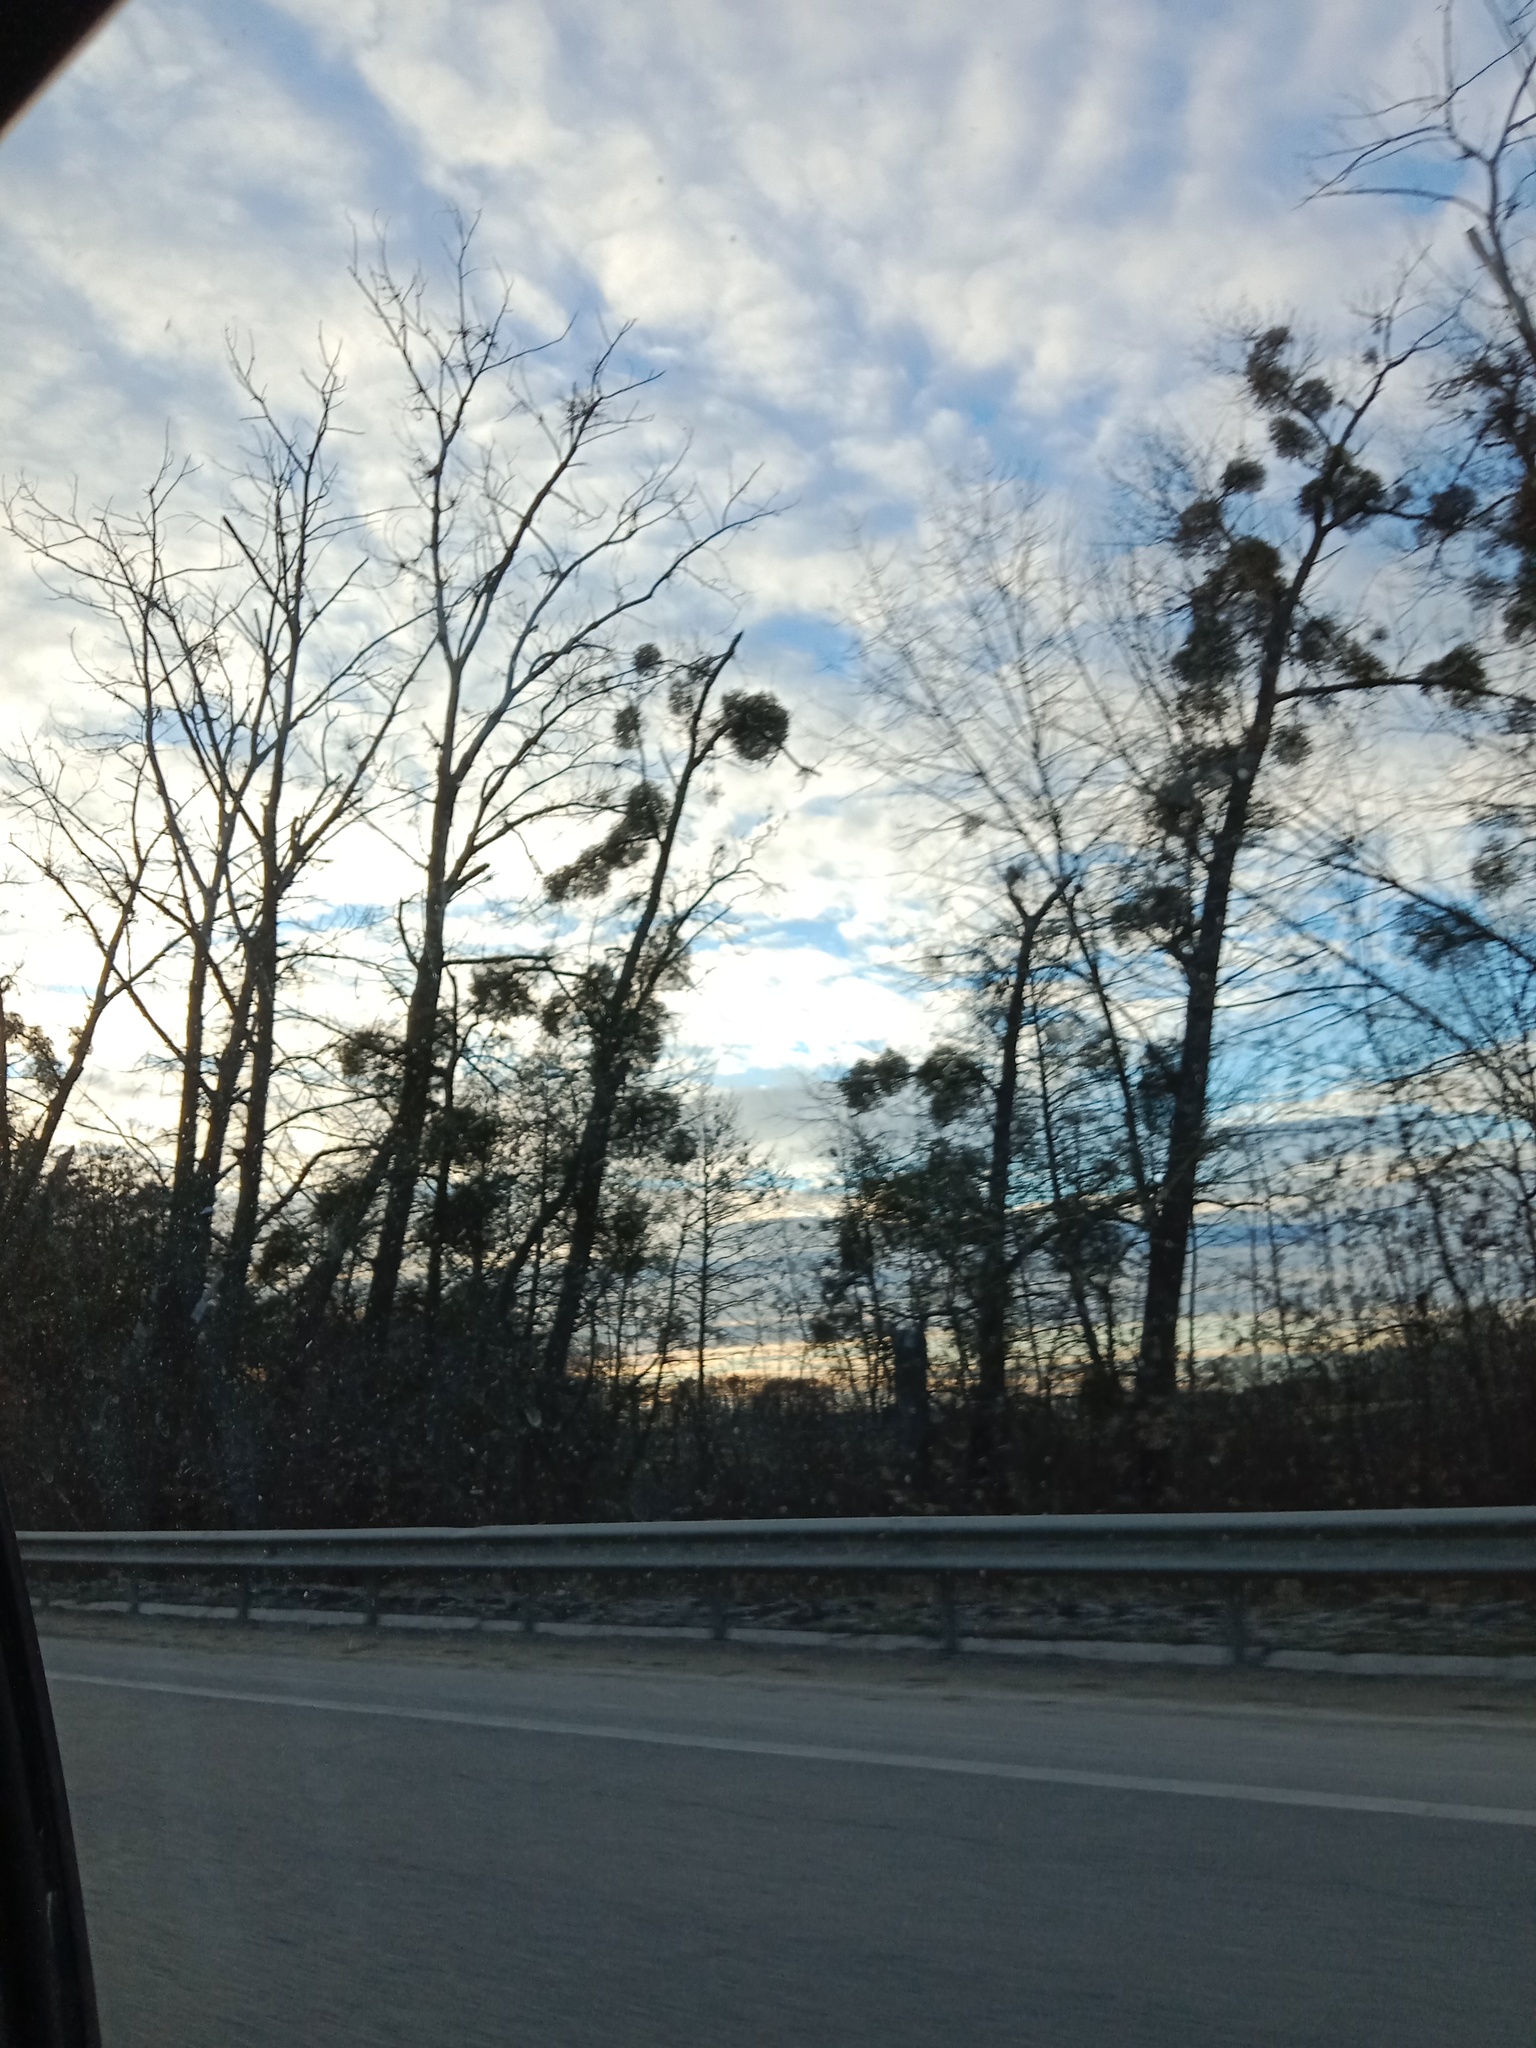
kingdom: Plantae
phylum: Tracheophyta
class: Magnoliopsida
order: Santalales
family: Viscaceae
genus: Viscum
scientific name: Viscum album
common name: Mistletoe
